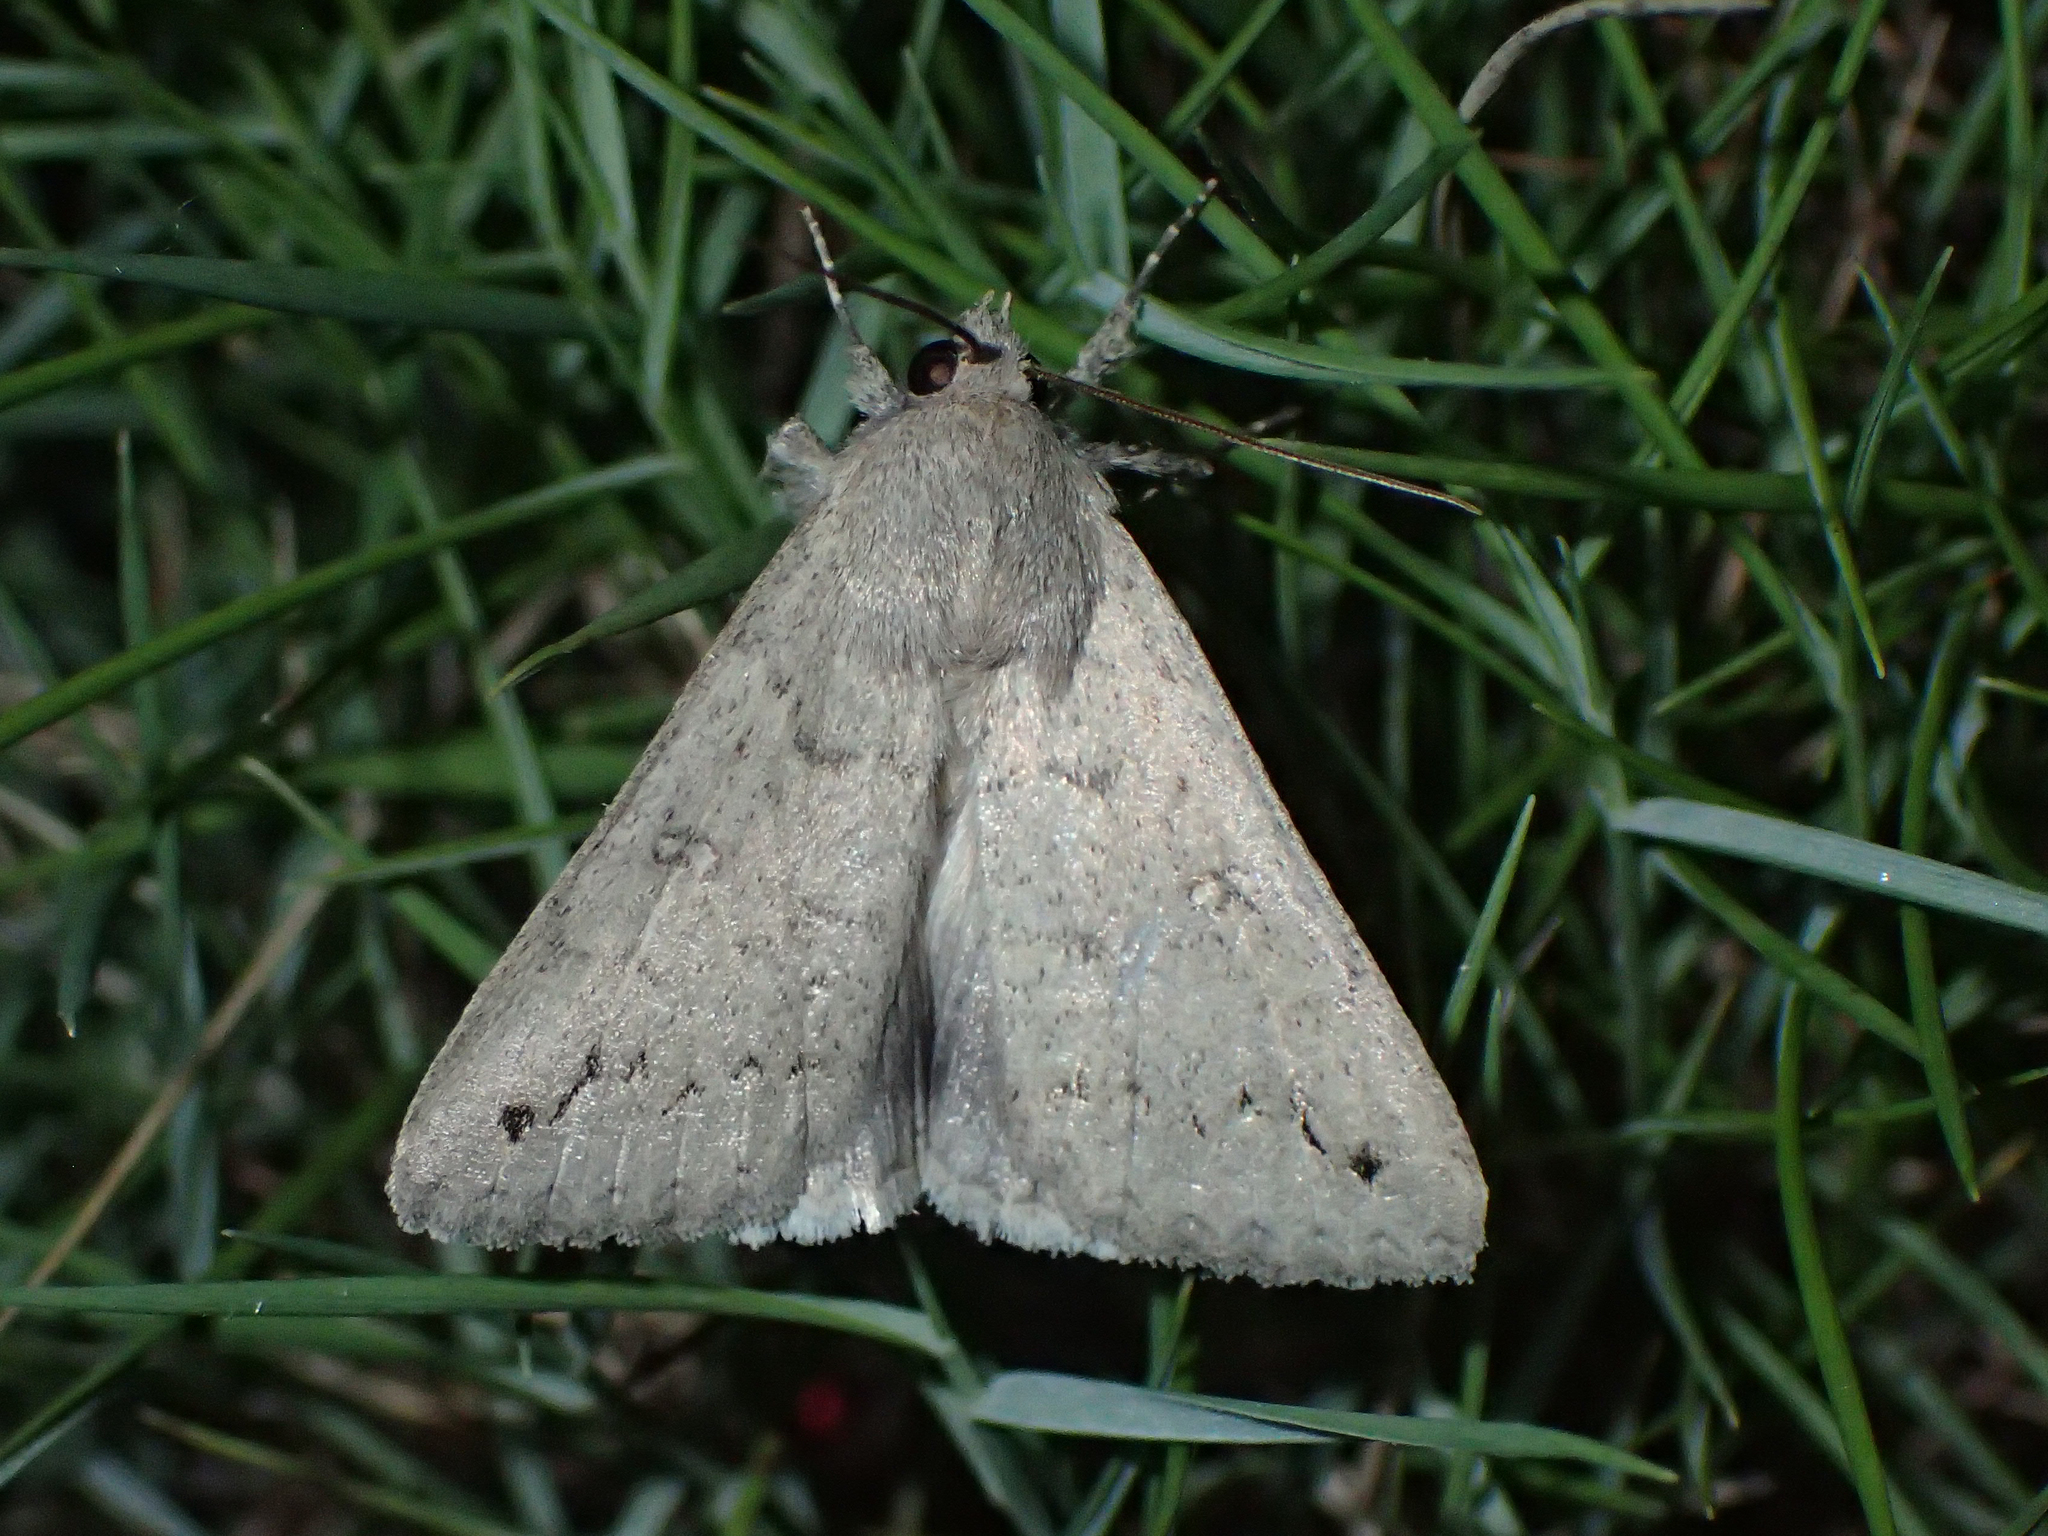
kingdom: Animalia
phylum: Arthropoda
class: Insecta
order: Lepidoptera
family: Erebidae
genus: Clytie
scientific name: Clytie illunaris
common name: Trent double-stripe
